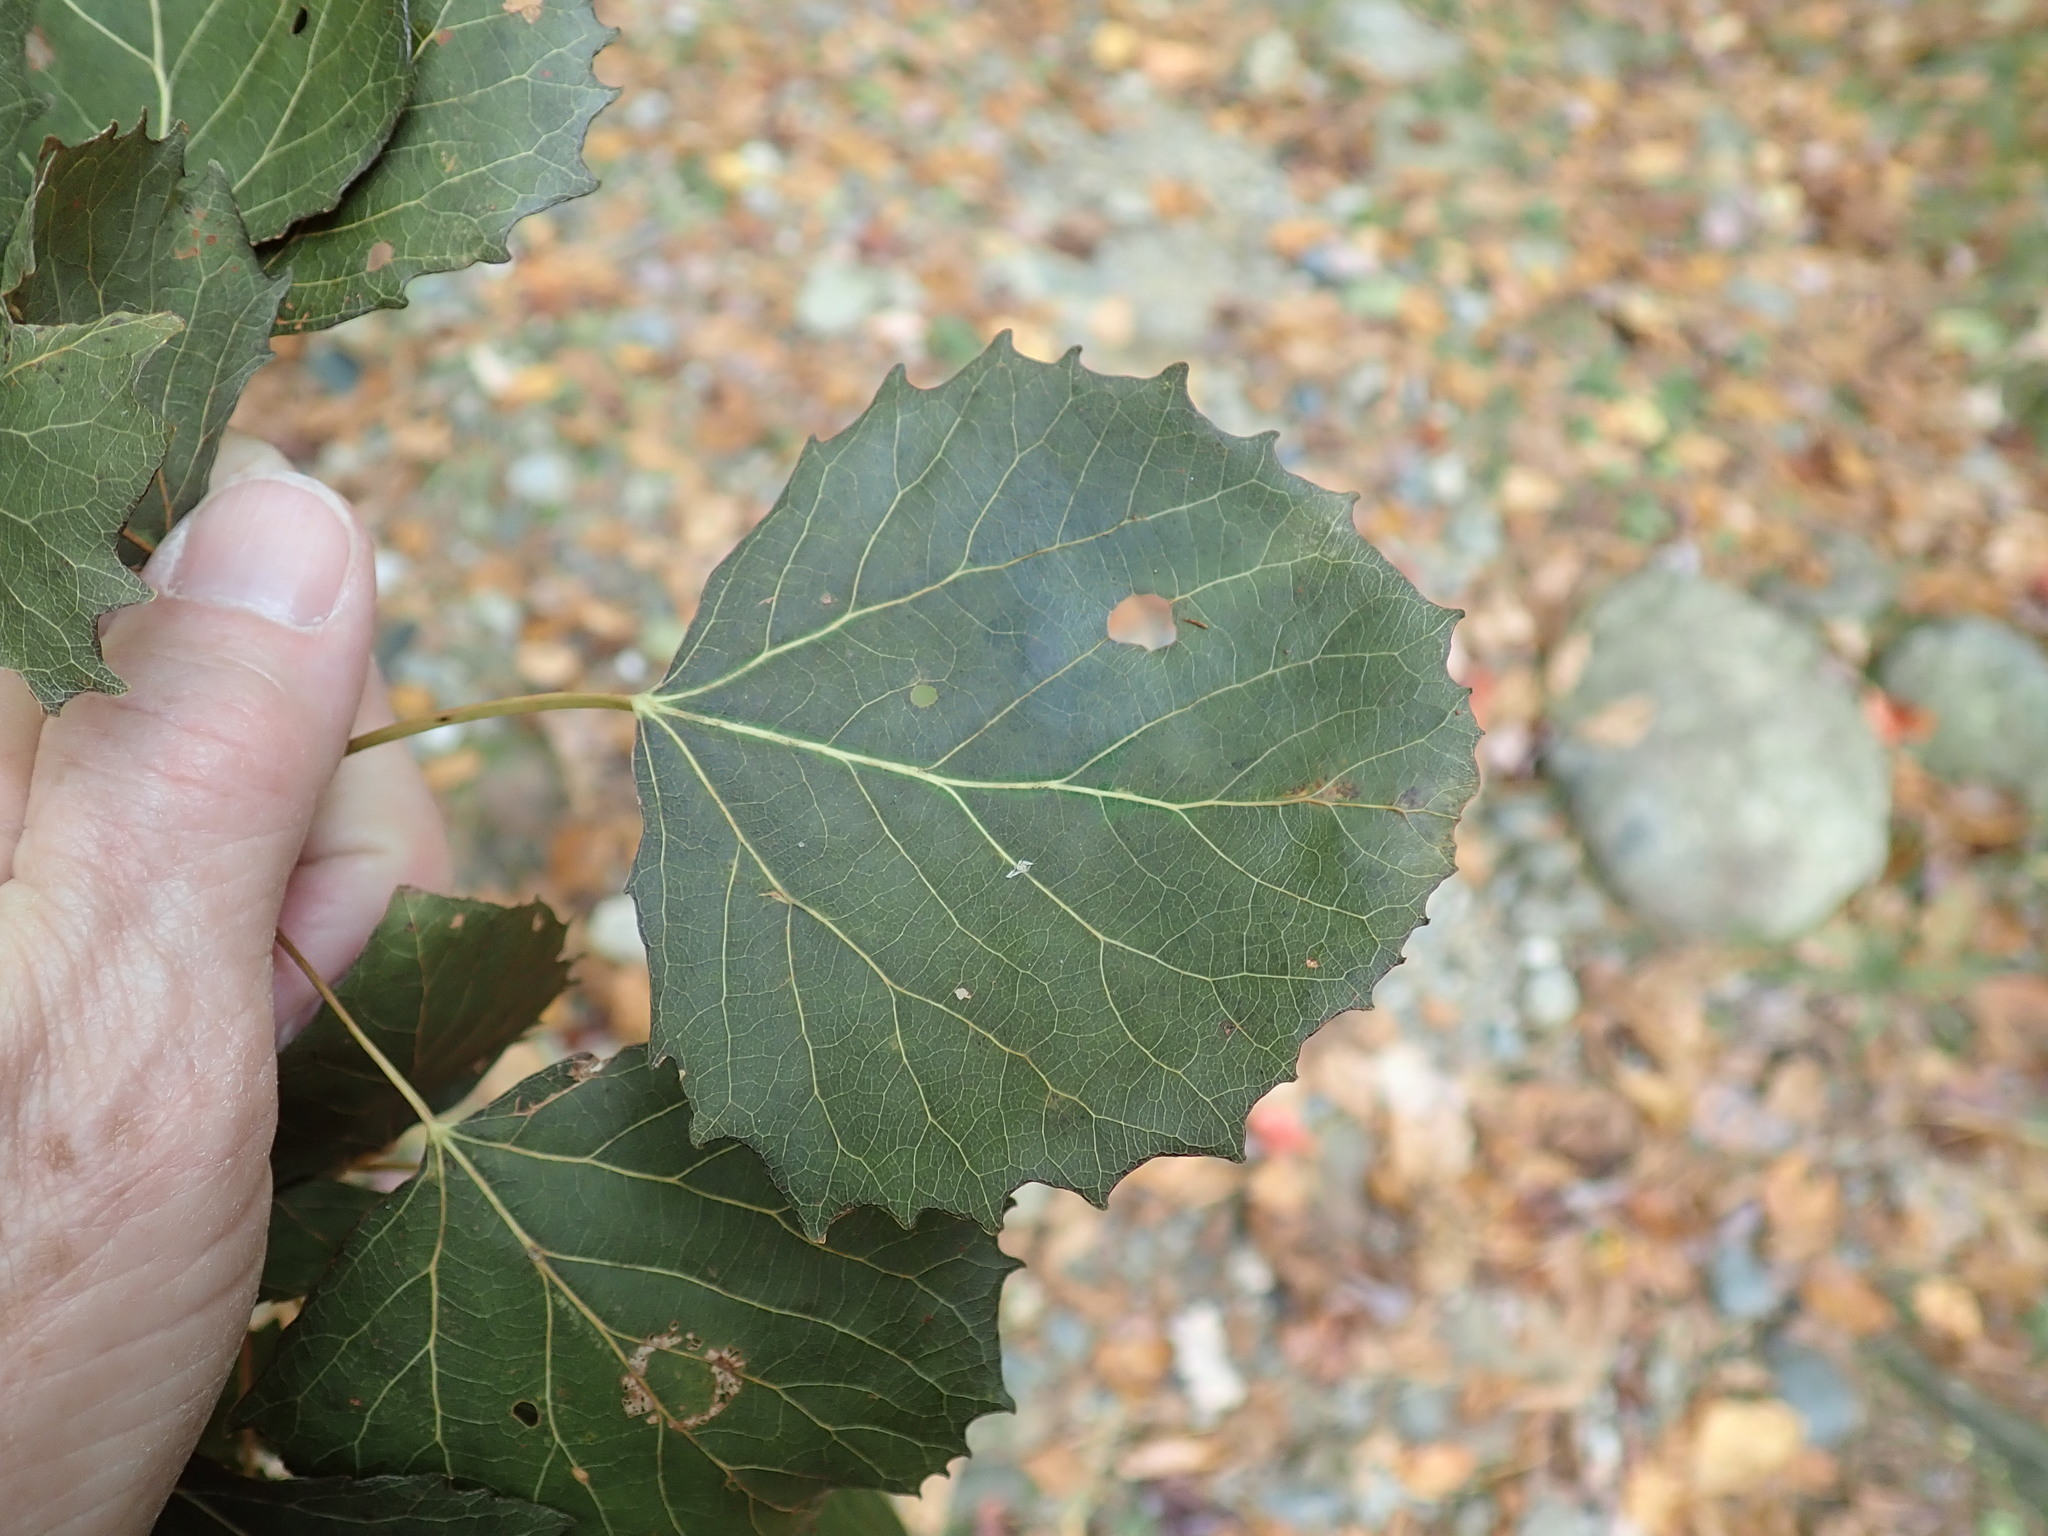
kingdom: Plantae
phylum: Tracheophyta
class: Magnoliopsida
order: Malpighiales
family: Salicaceae
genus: Populus
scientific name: Populus grandidentata
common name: Bigtooth aspen
